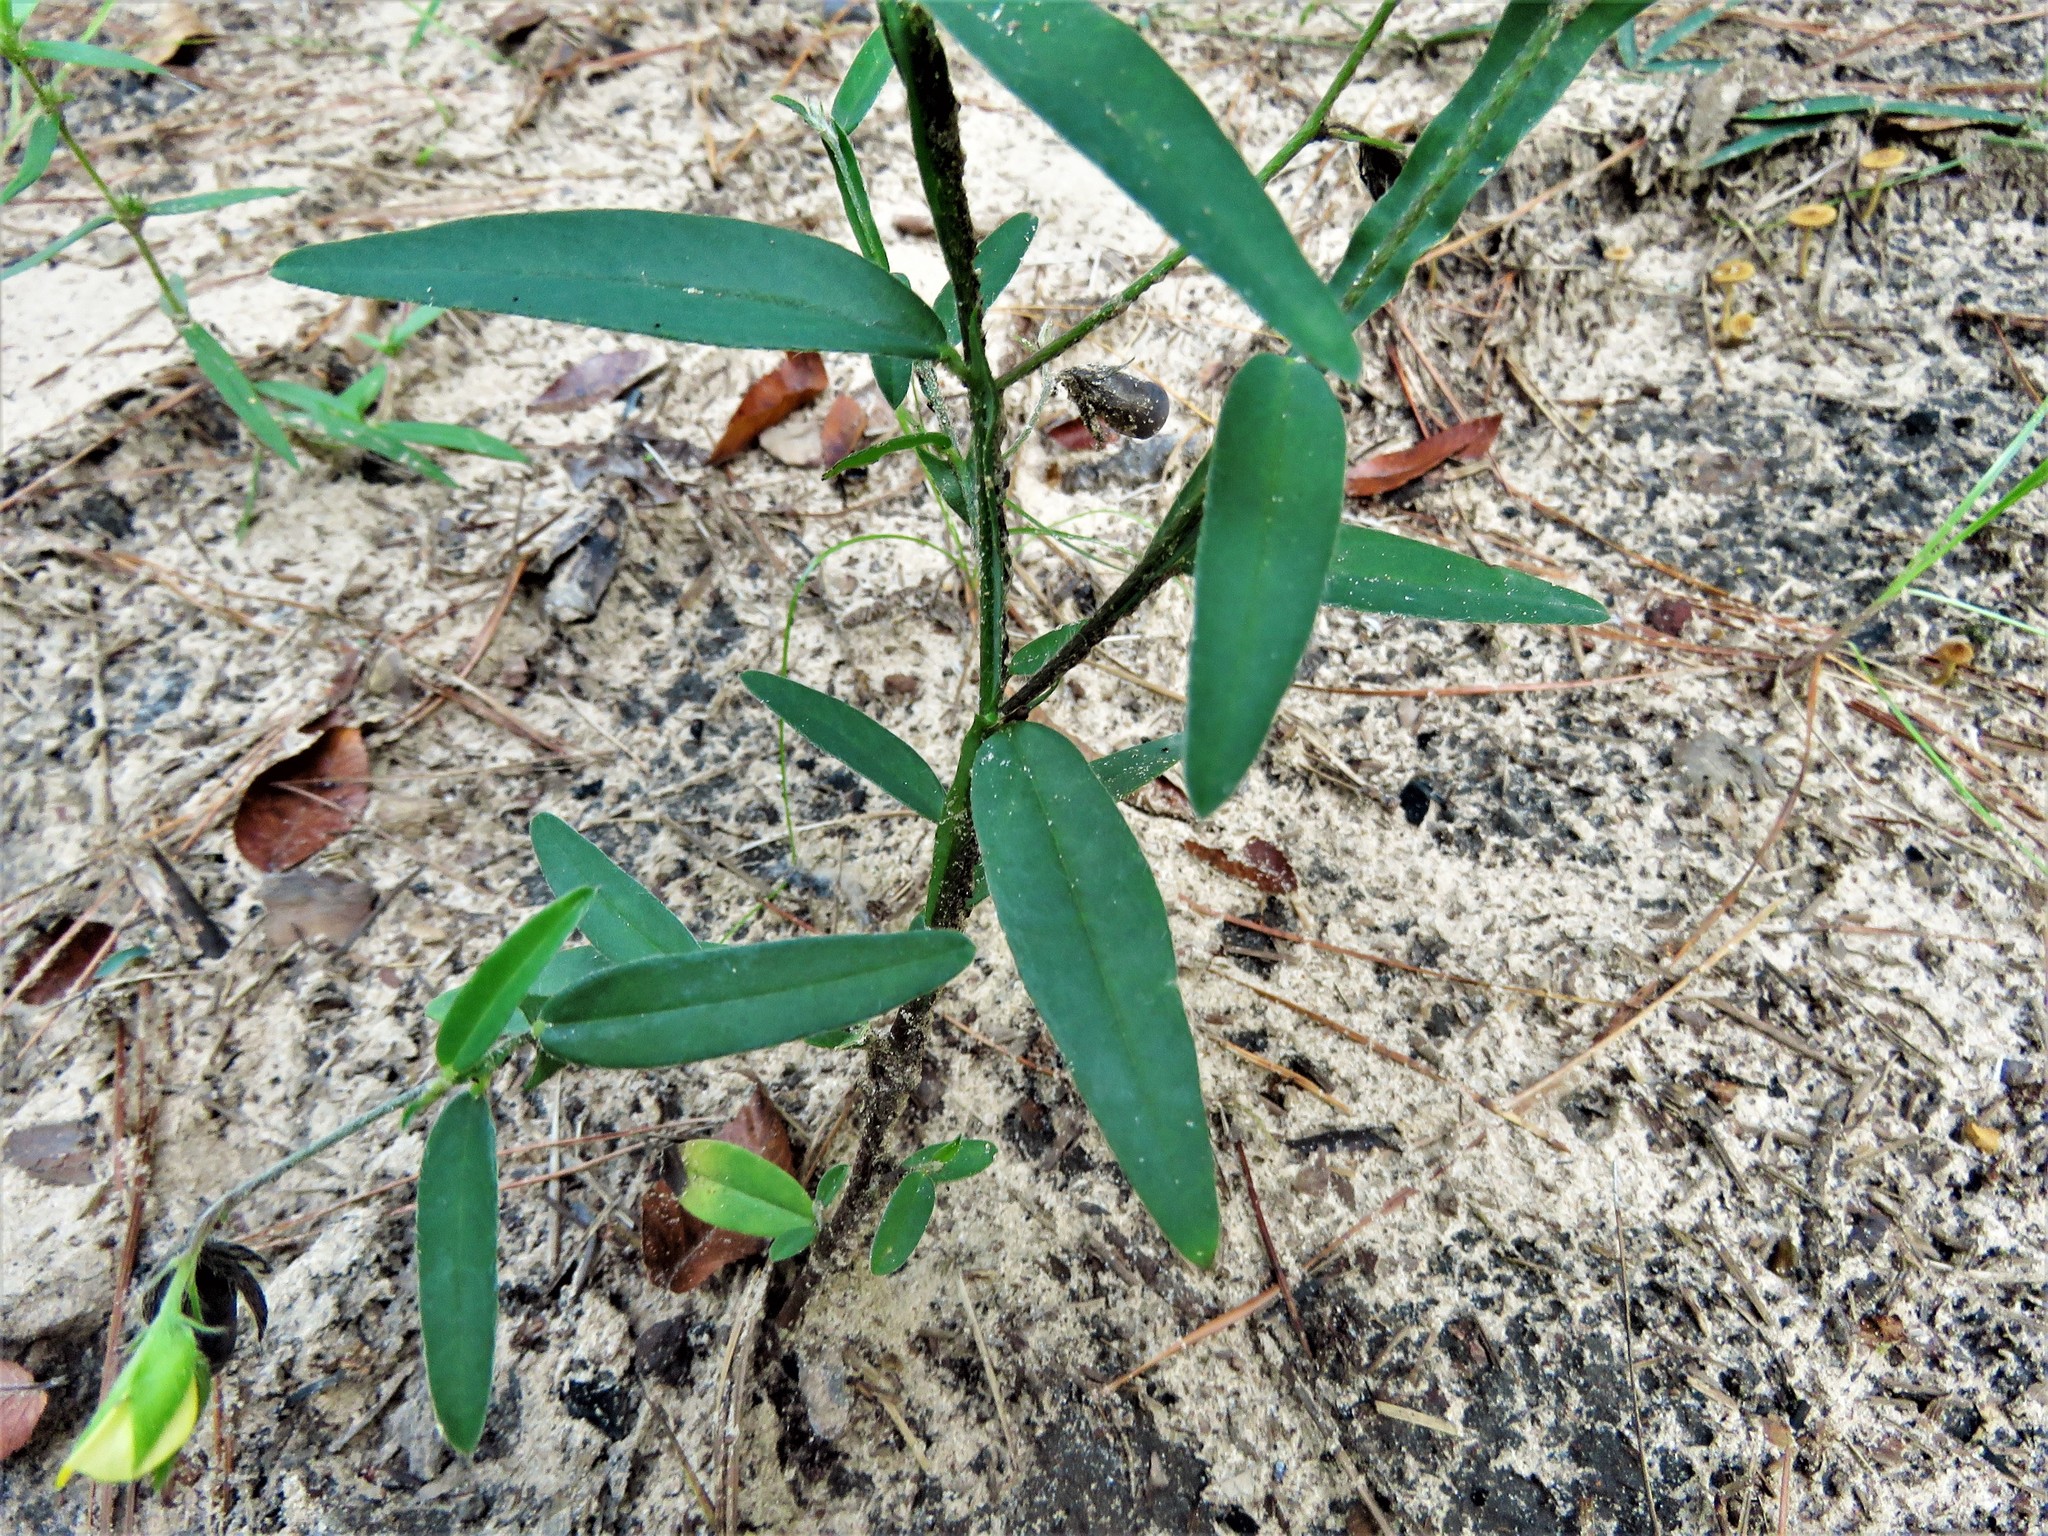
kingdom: Plantae
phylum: Tracheophyta
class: Magnoliopsida
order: Fabales
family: Fabaceae
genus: Crotalaria
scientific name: Crotalaria sagittalis
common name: Arrowhead rattlebox
